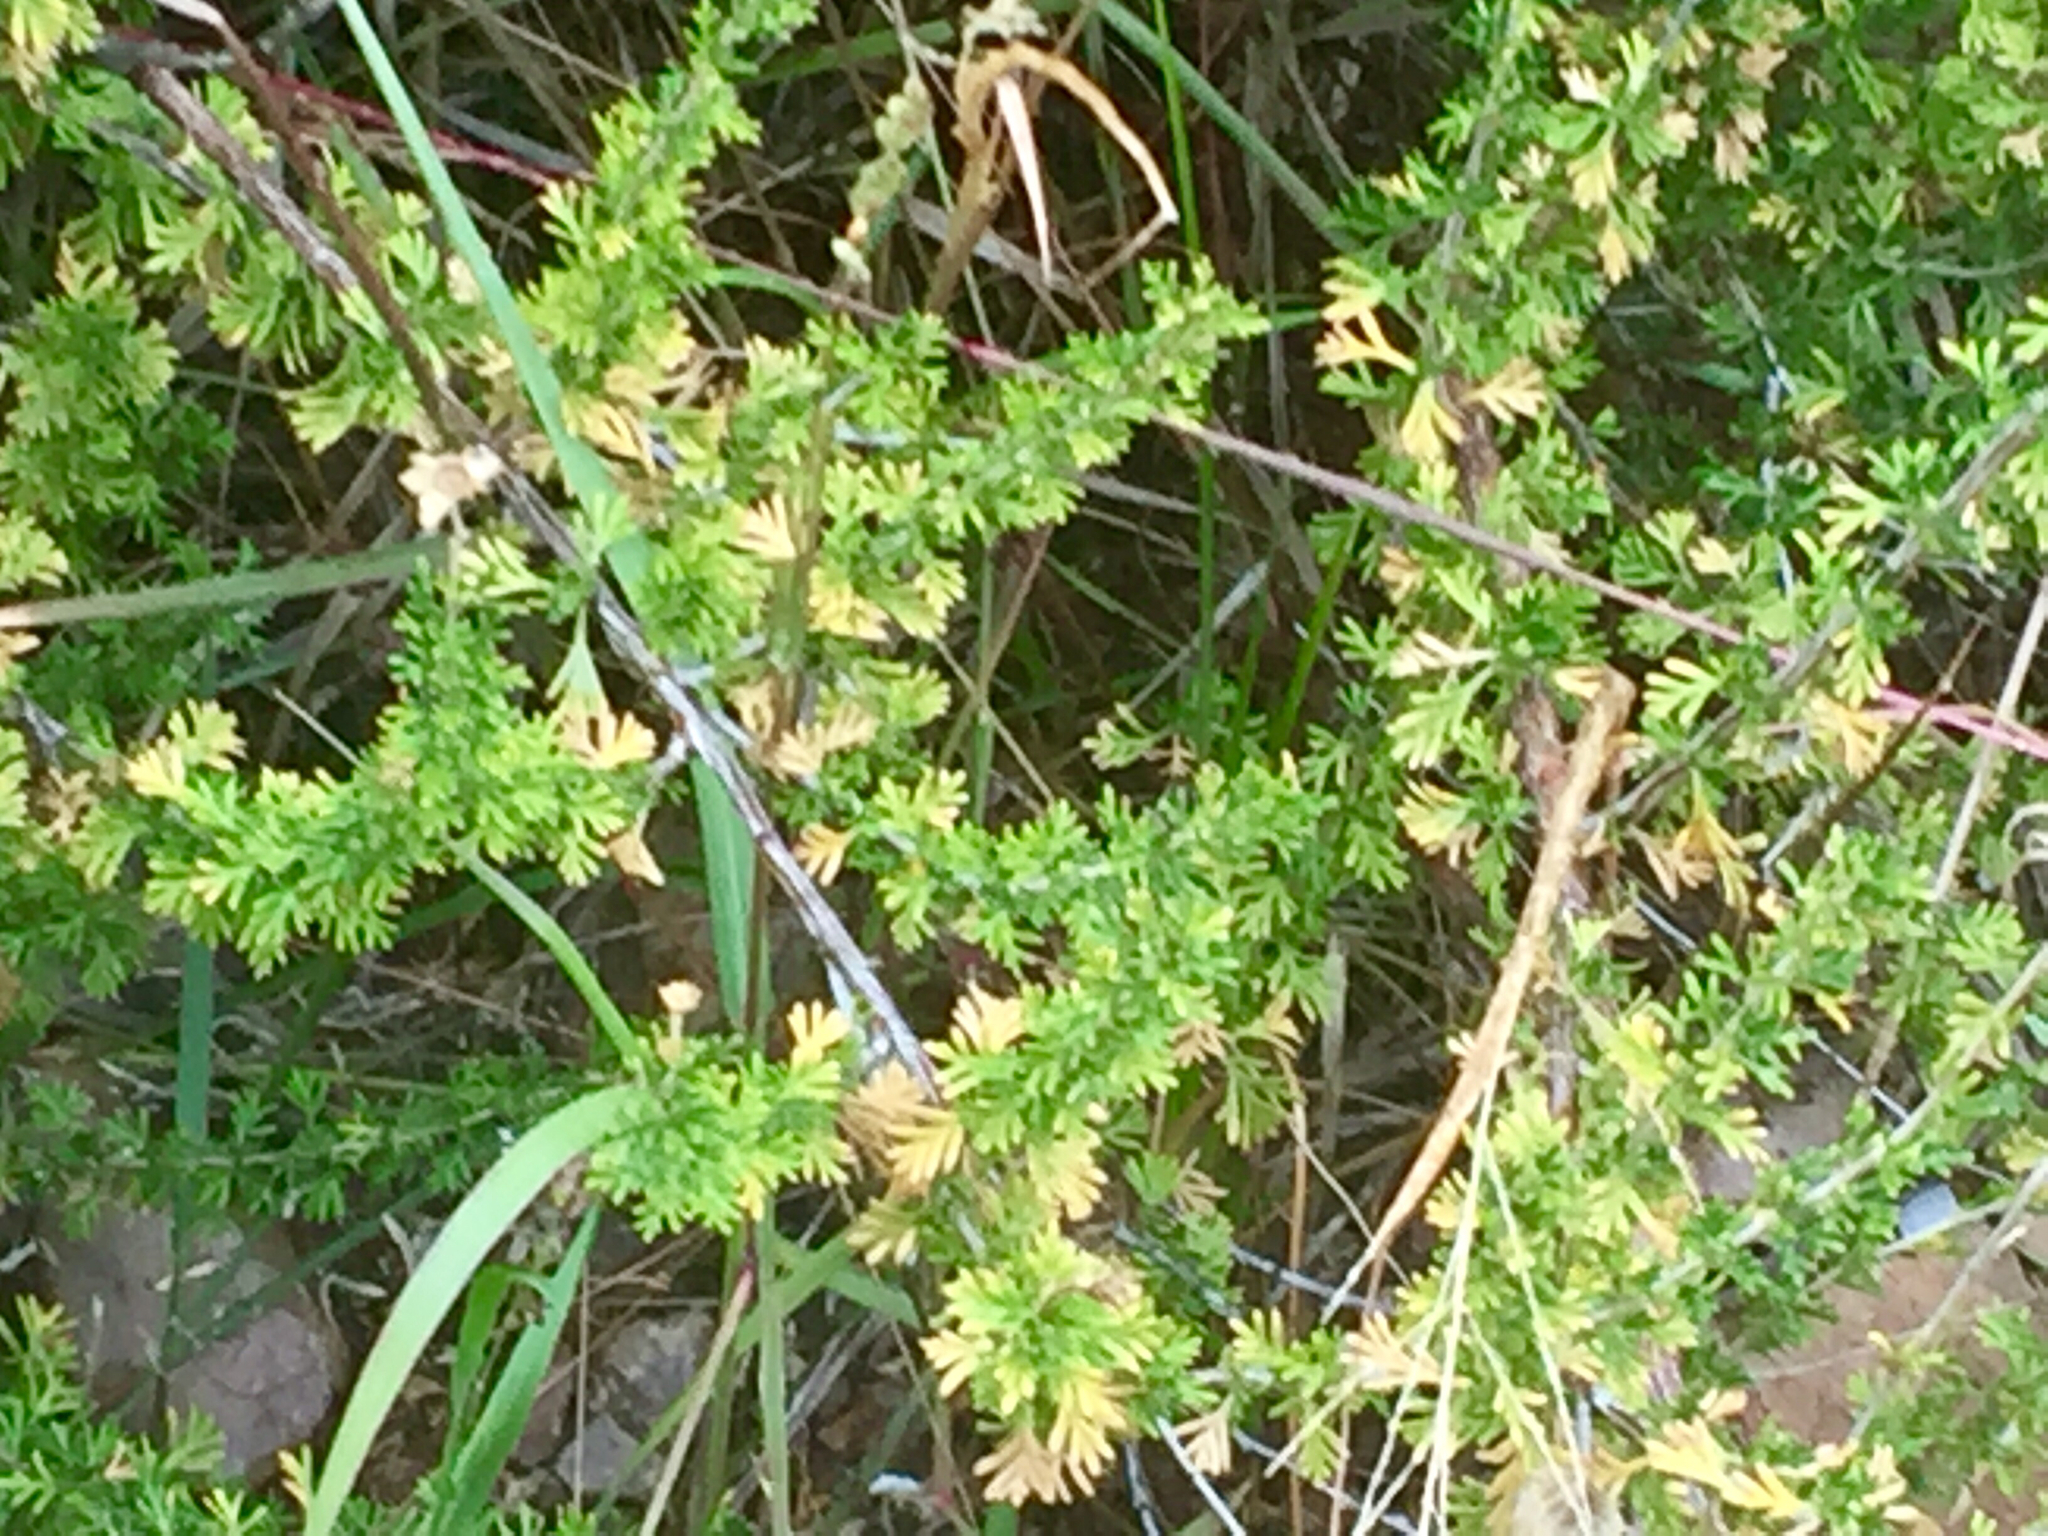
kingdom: Plantae
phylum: Tracheophyta
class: Magnoliopsida
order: Rosales
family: Rosaceae
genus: Fallugia
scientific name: Fallugia paradoxa
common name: Apache-plume
